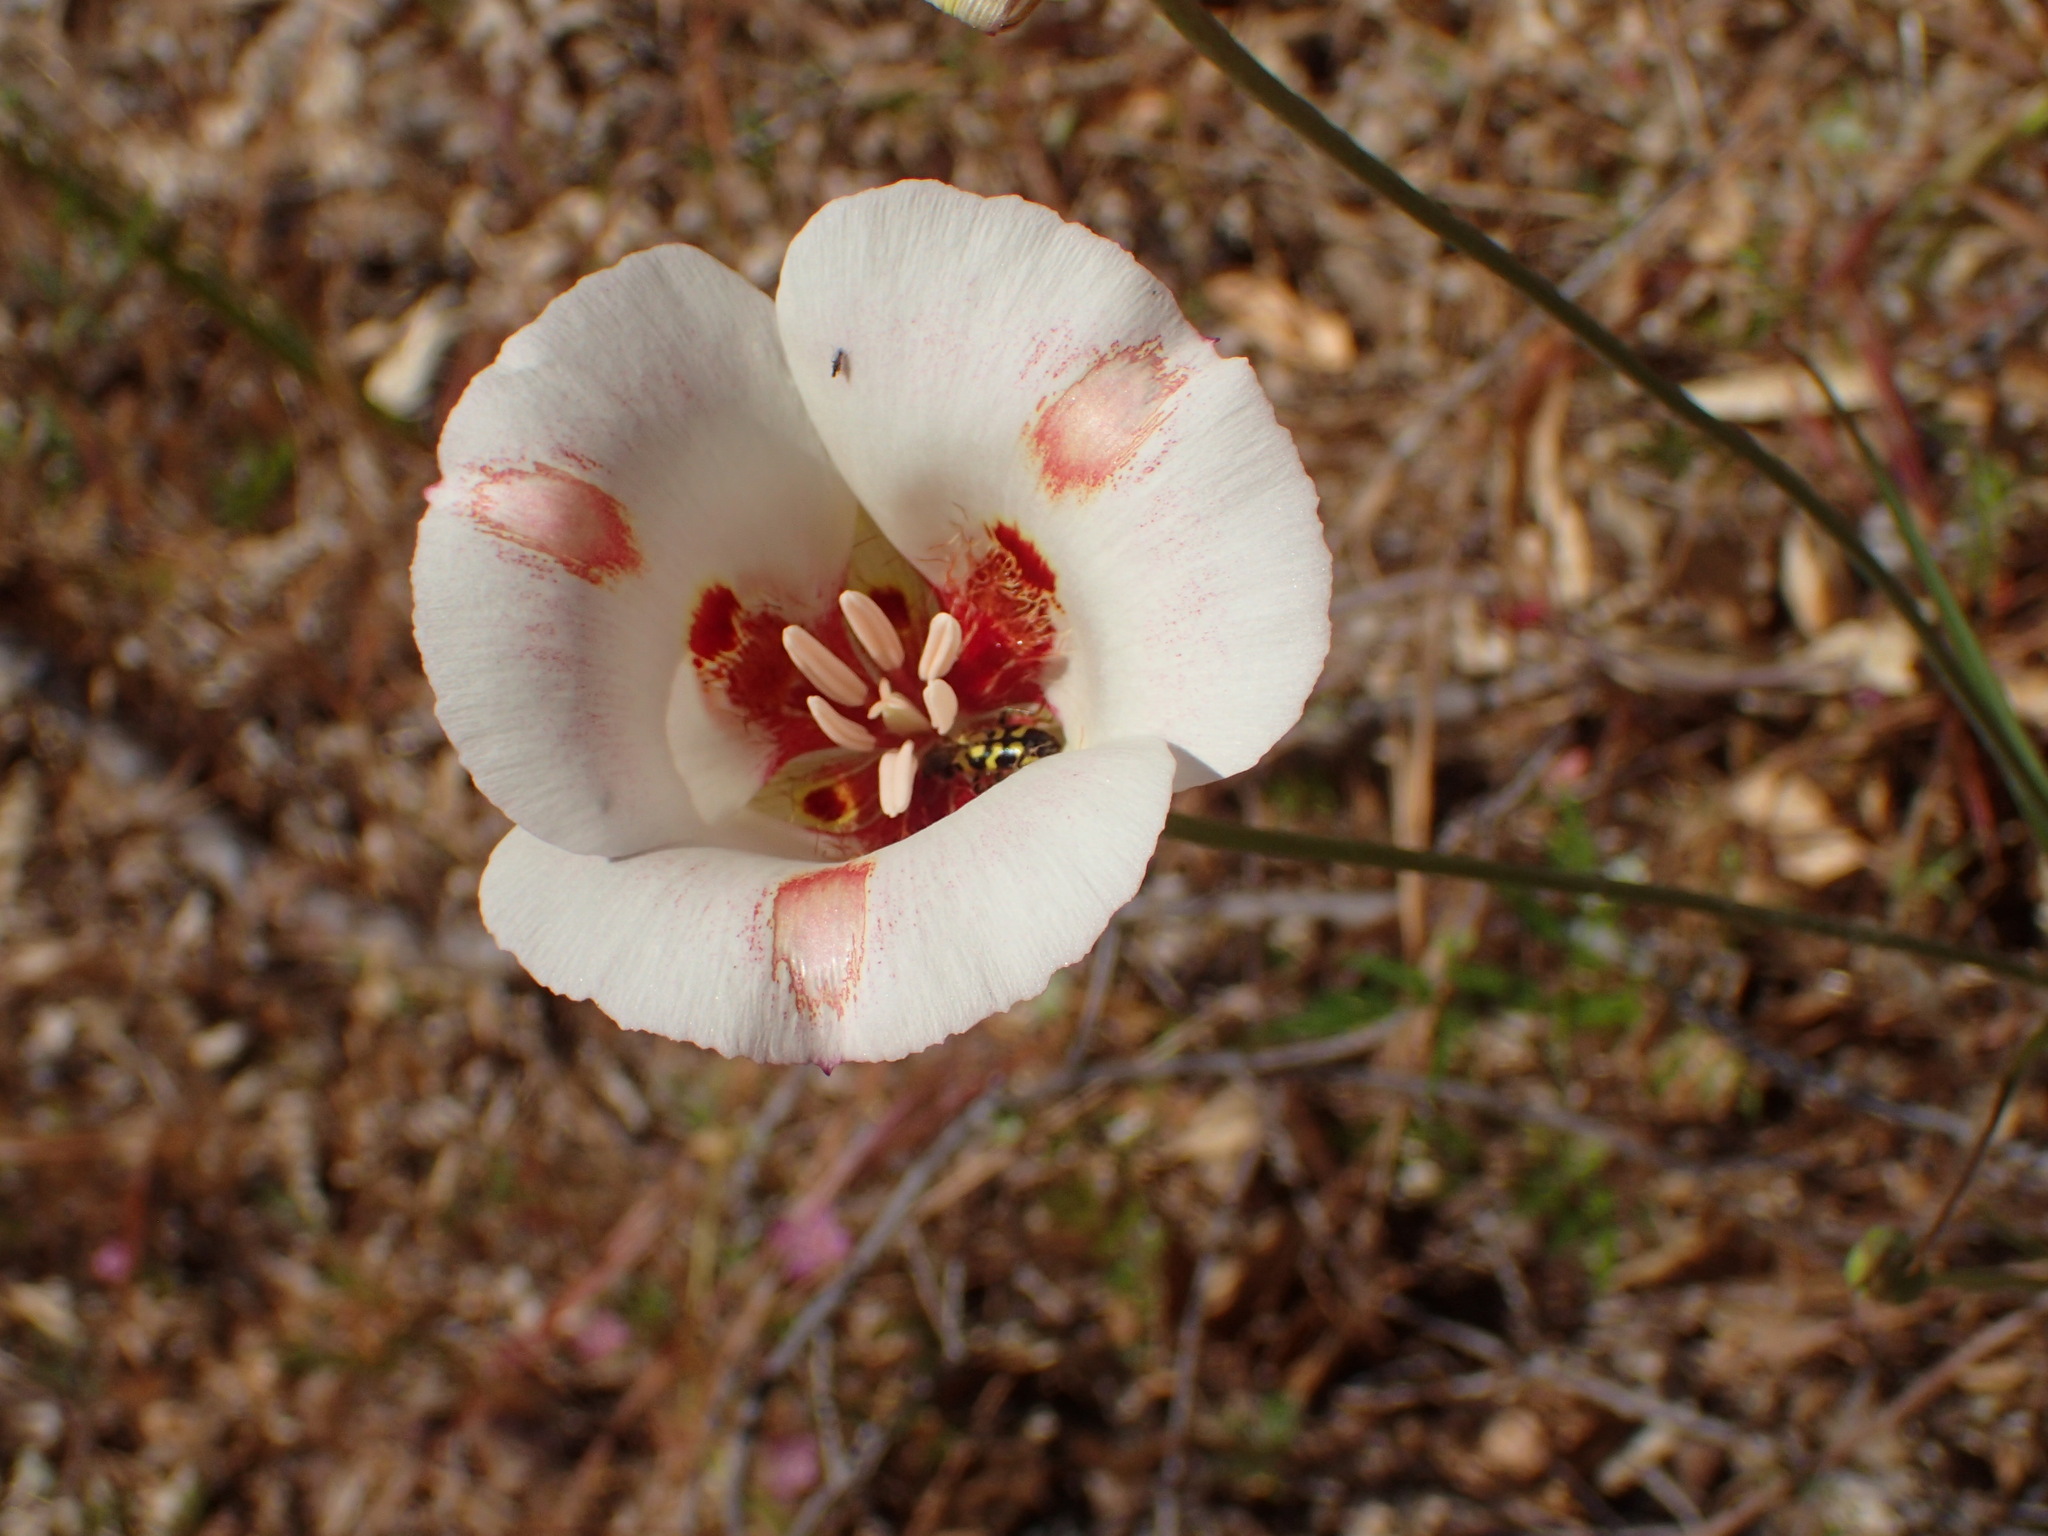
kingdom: Plantae
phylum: Tracheophyta
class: Liliopsida
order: Liliales
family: Liliaceae
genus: Calochortus
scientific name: Calochortus venustus
